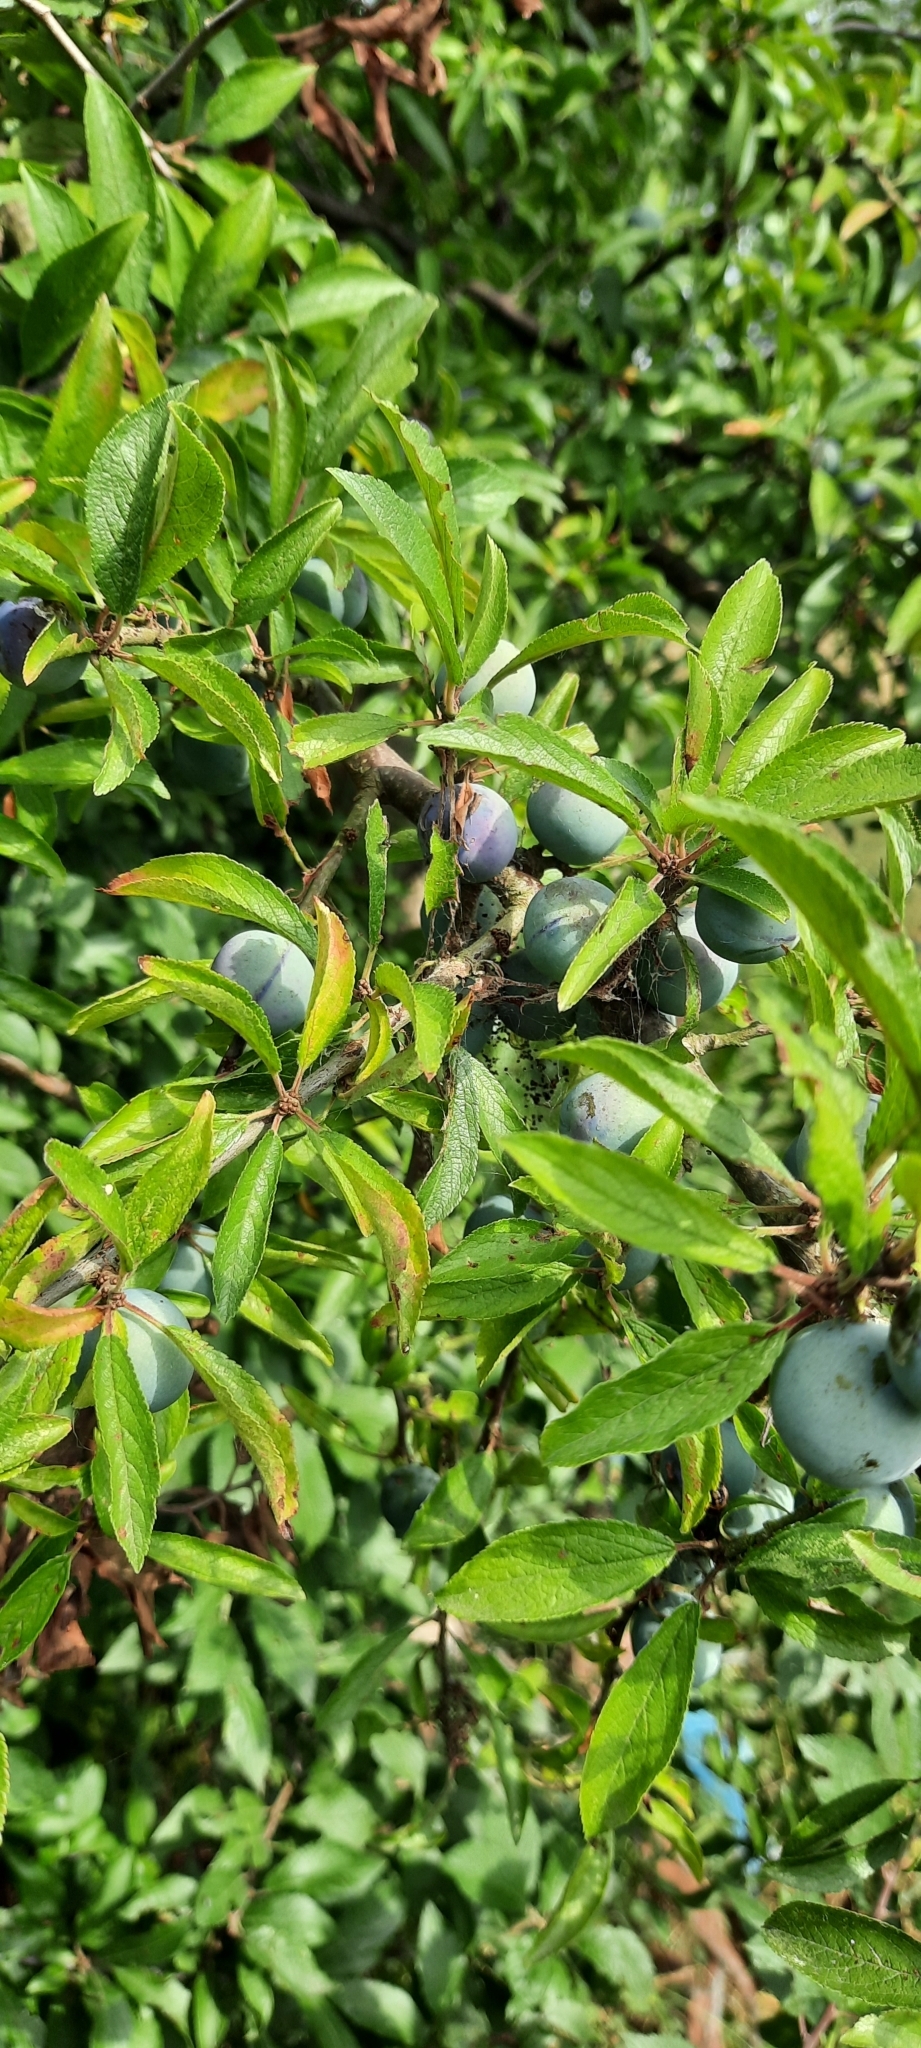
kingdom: Plantae
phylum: Tracheophyta
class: Magnoliopsida
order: Rosales
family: Rosaceae
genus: Prunus
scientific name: Prunus spinosa
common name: Blackthorn
